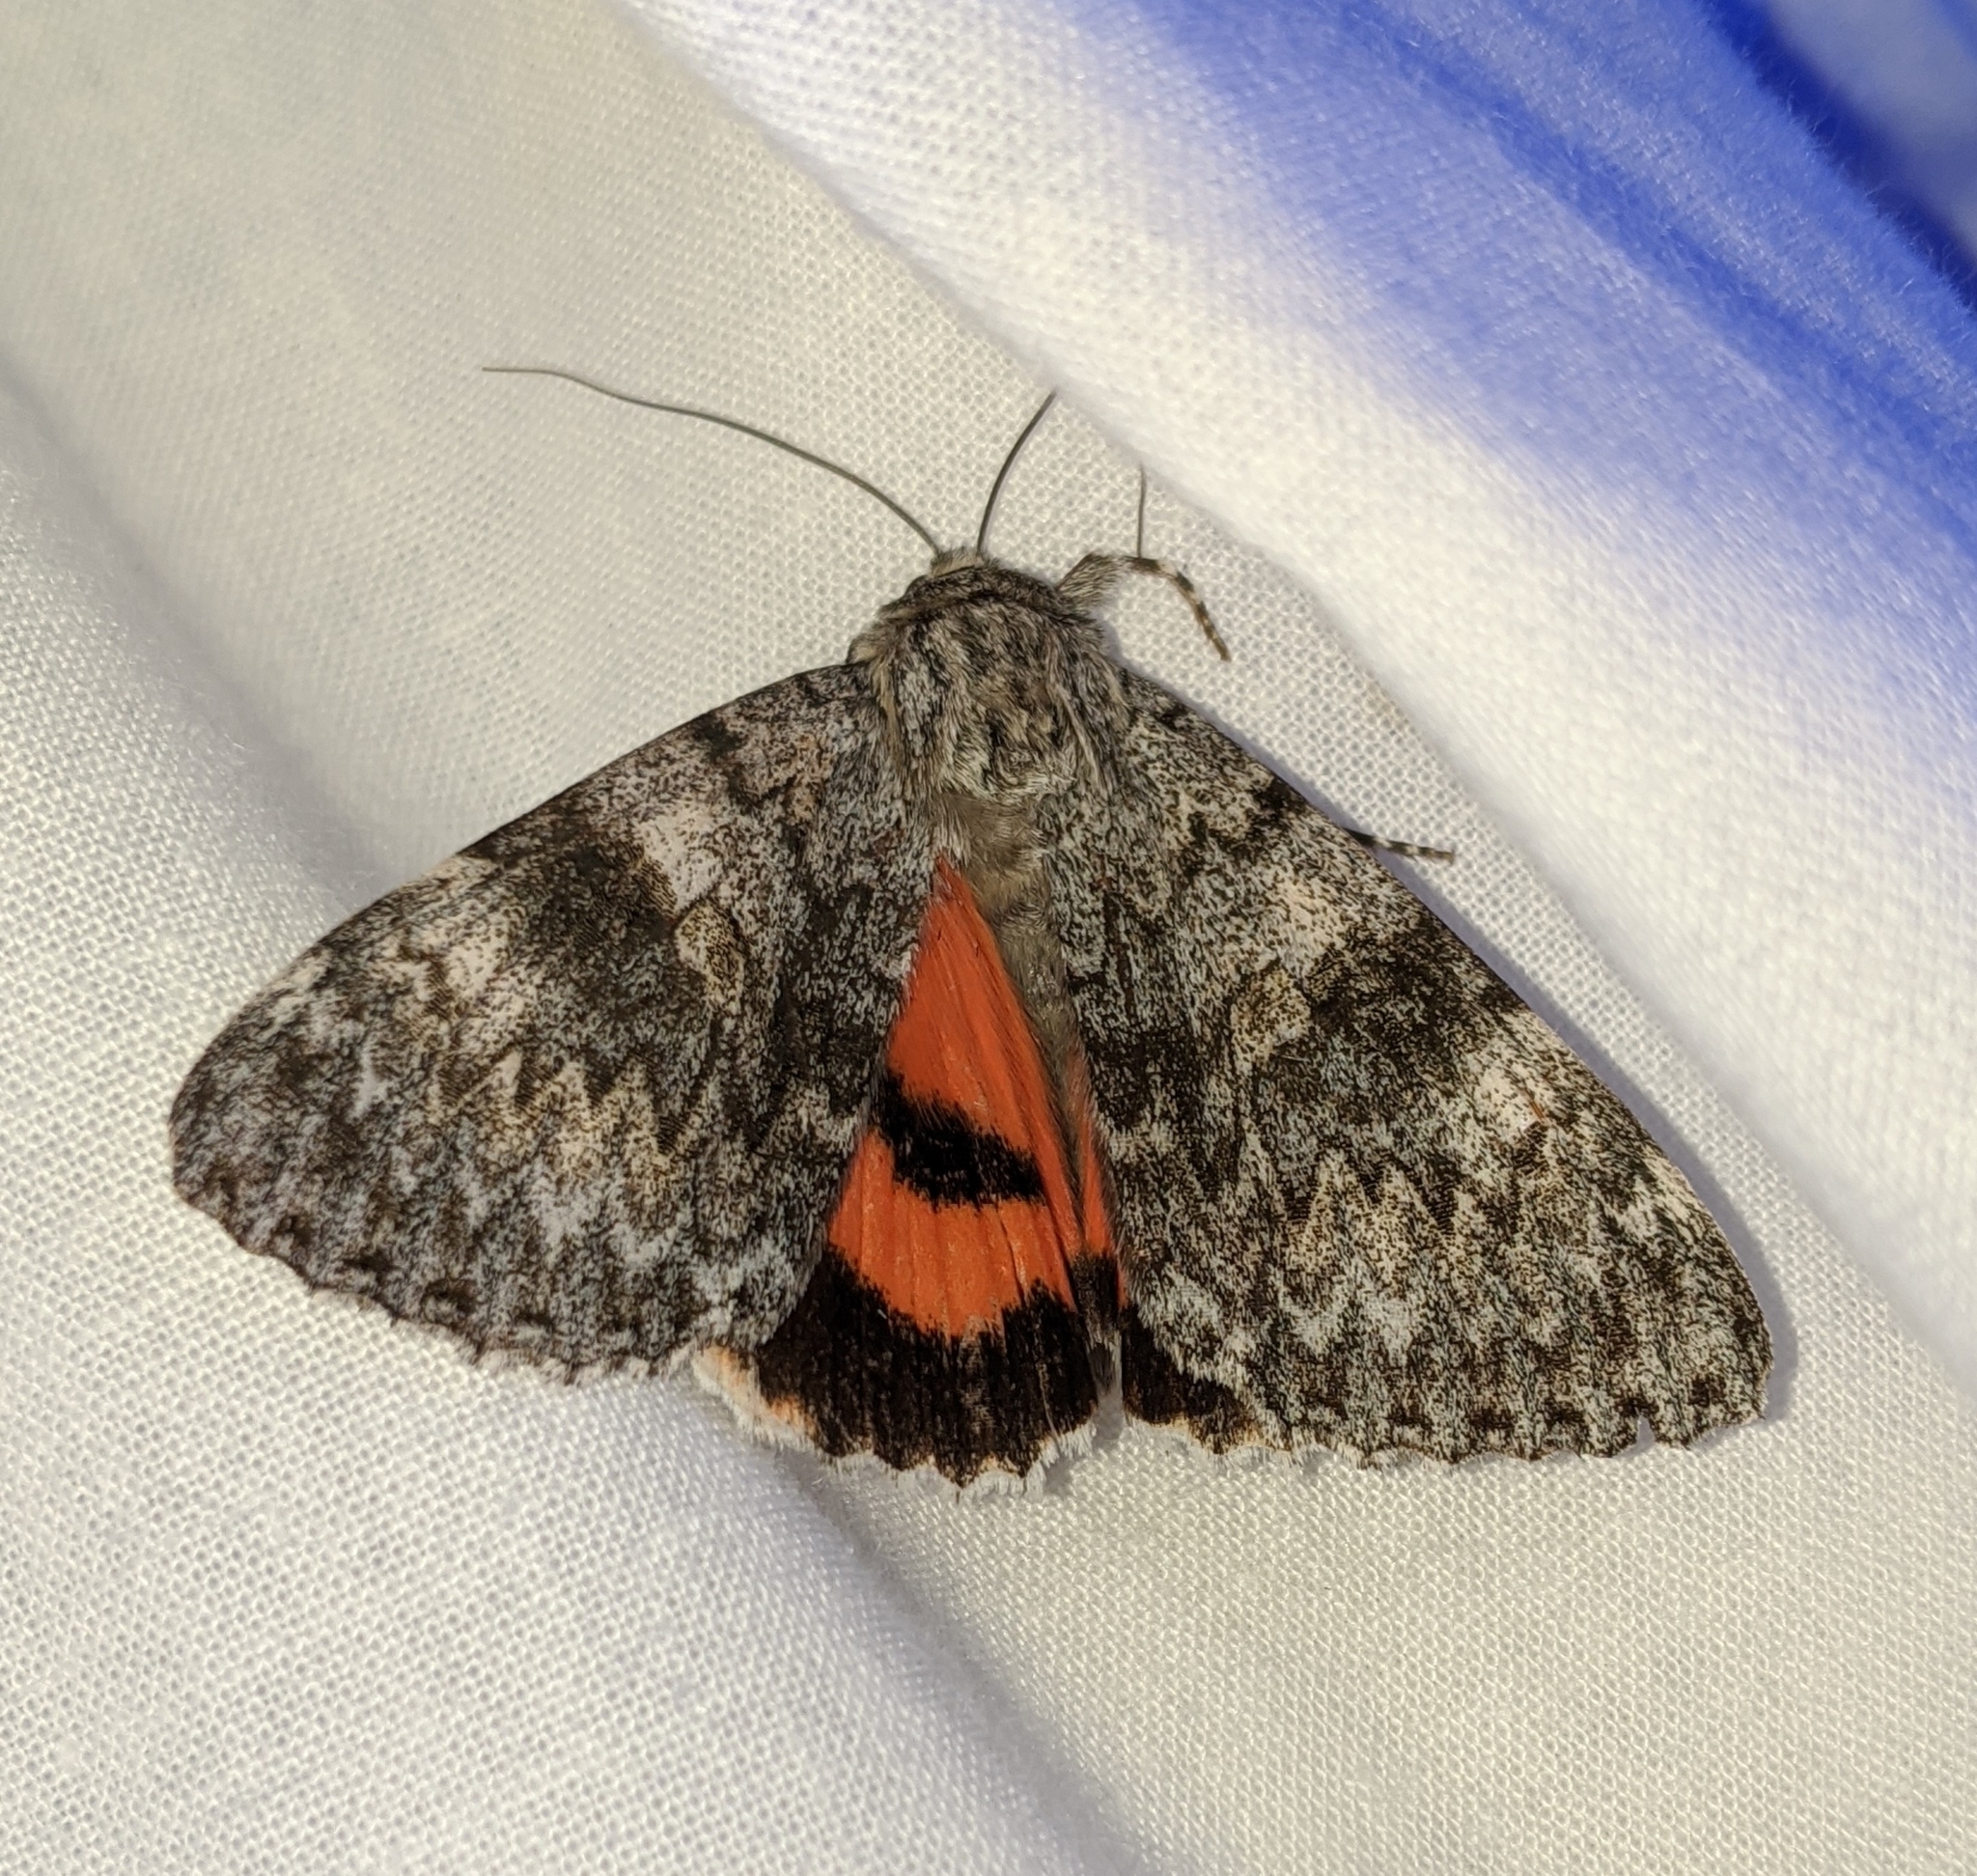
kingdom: Animalia
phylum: Arthropoda
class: Insecta
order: Lepidoptera
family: Erebidae
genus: Catocala
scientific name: Catocala semirelicta
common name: Semirelict underwing moth
